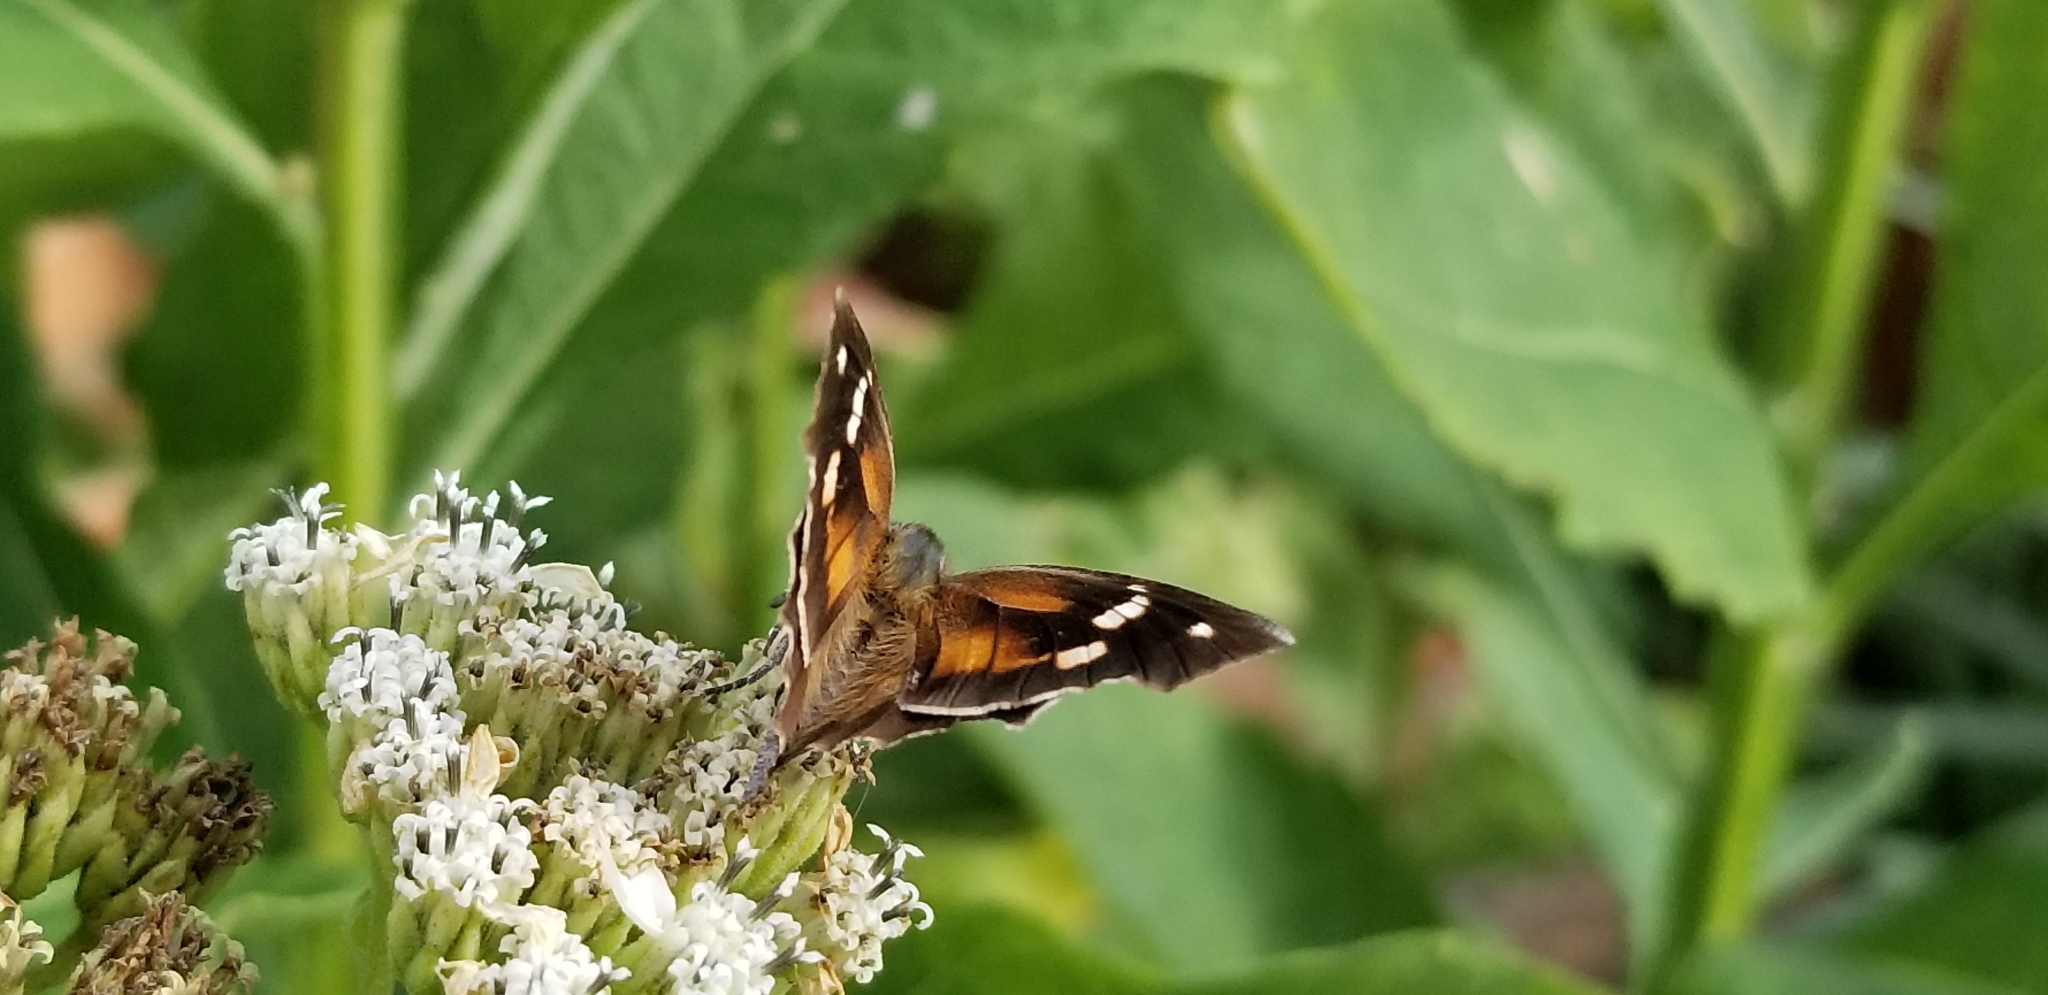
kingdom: Animalia
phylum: Arthropoda
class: Insecta
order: Lepidoptera
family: Nymphalidae
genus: Libytheana
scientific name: Libytheana carinenta
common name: American snout
